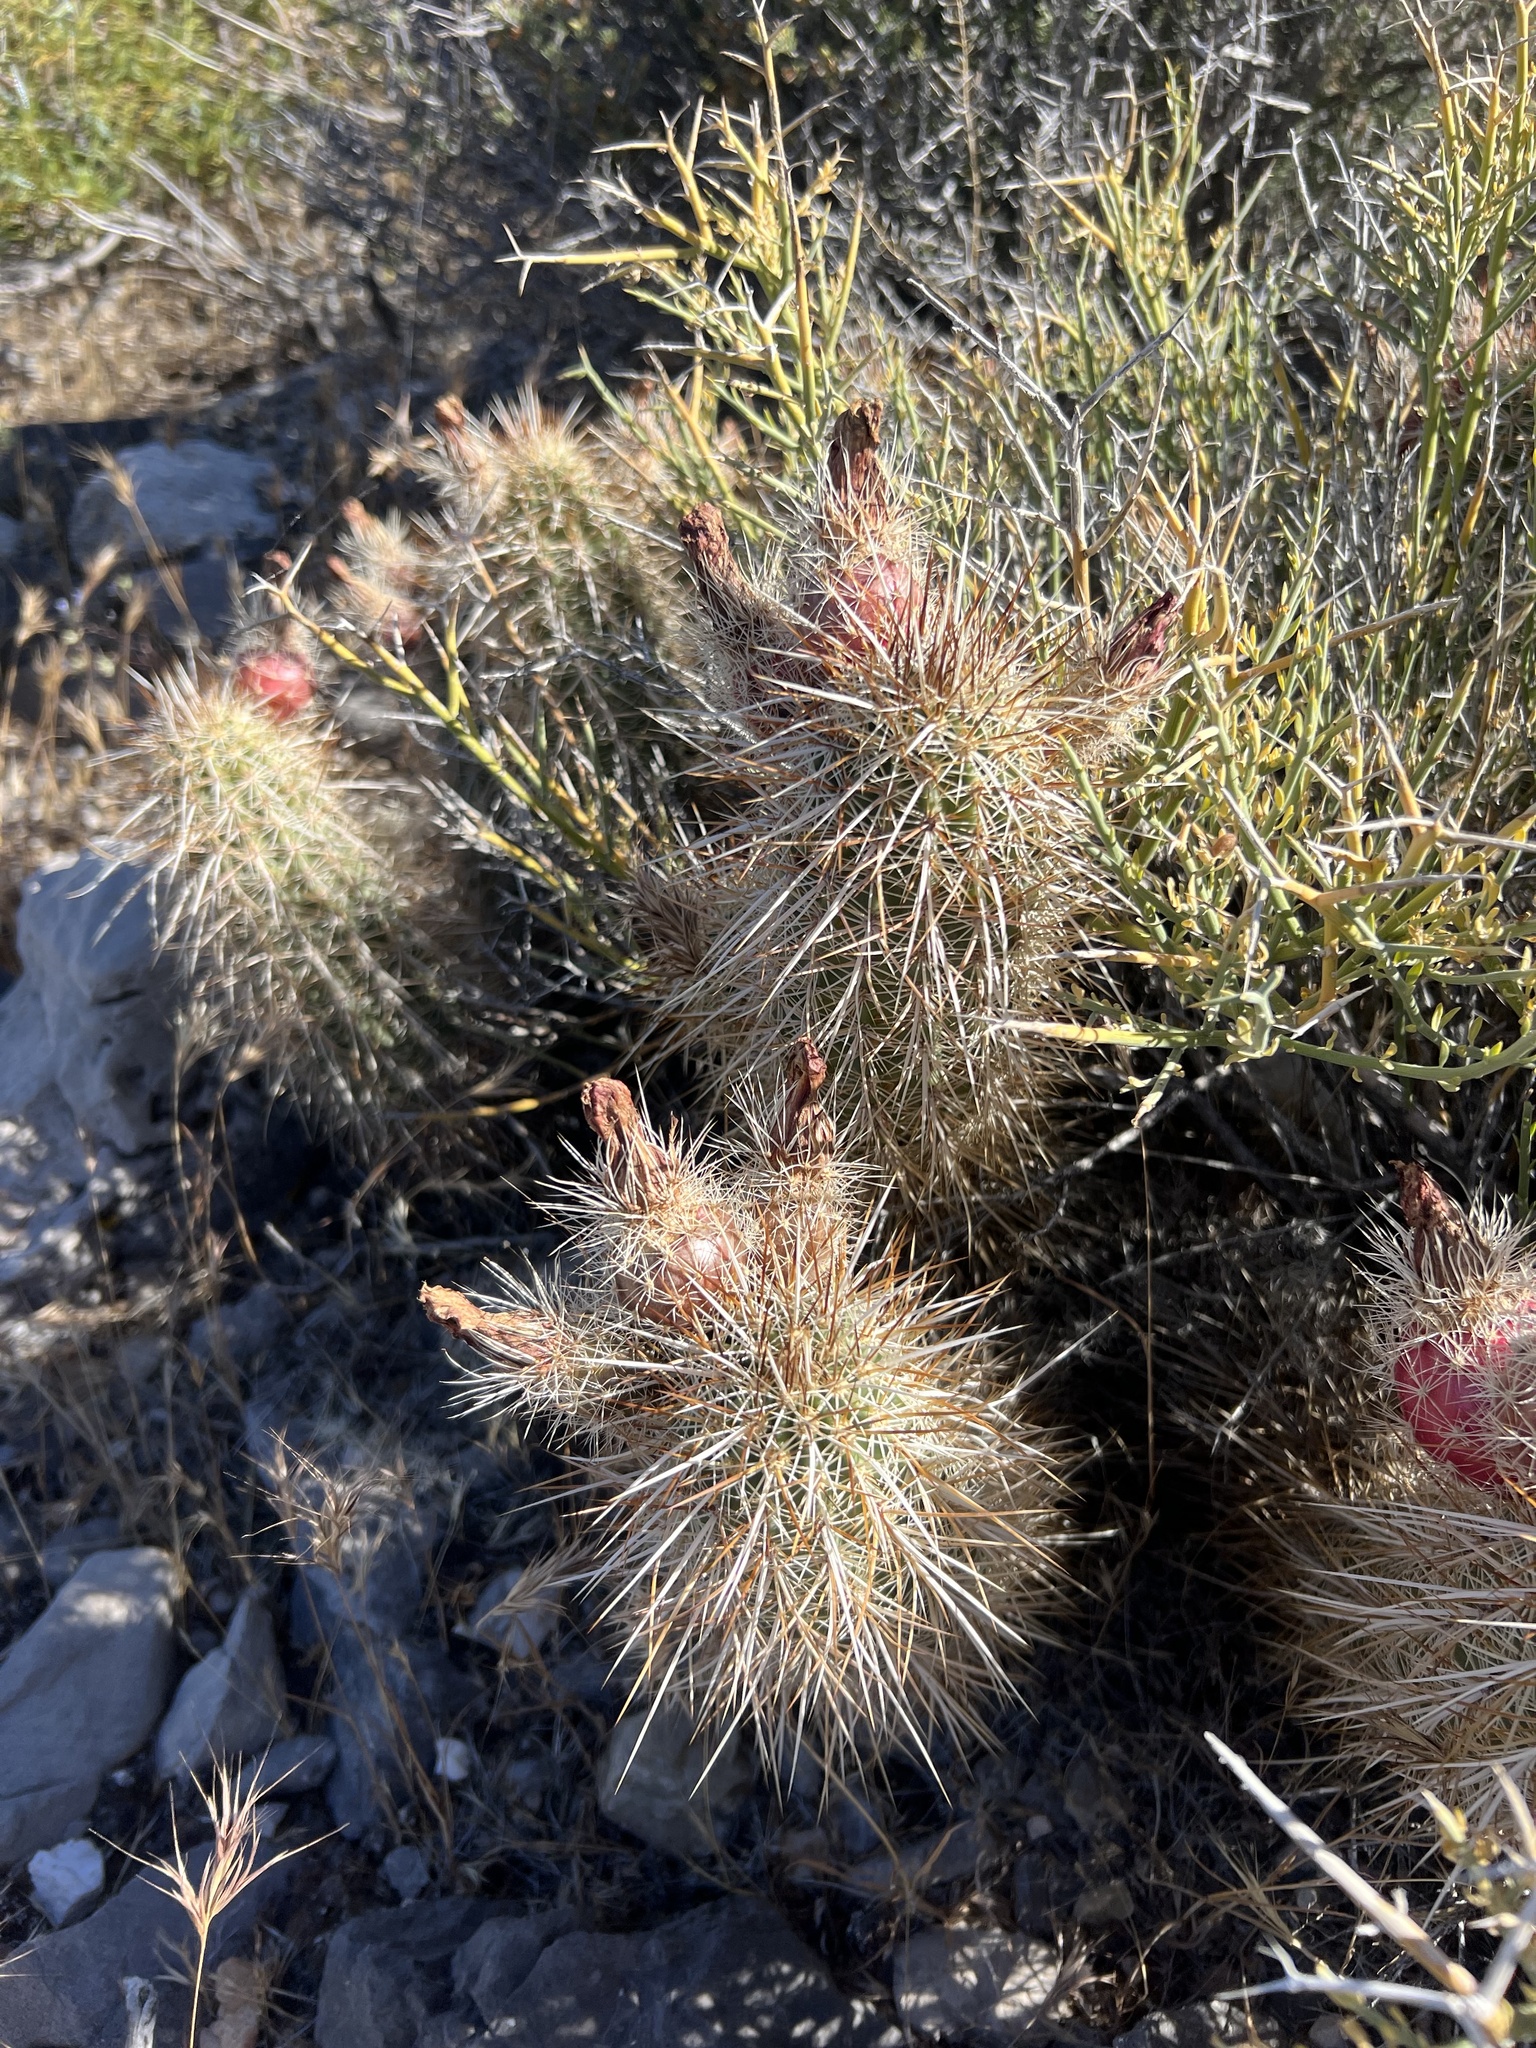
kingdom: Plantae
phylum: Tracheophyta
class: Magnoliopsida
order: Caryophyllales
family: Cactaceae
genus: Echinocereus
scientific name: Echinocereus engelmannii
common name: Engelmann's hedgehog cactus
